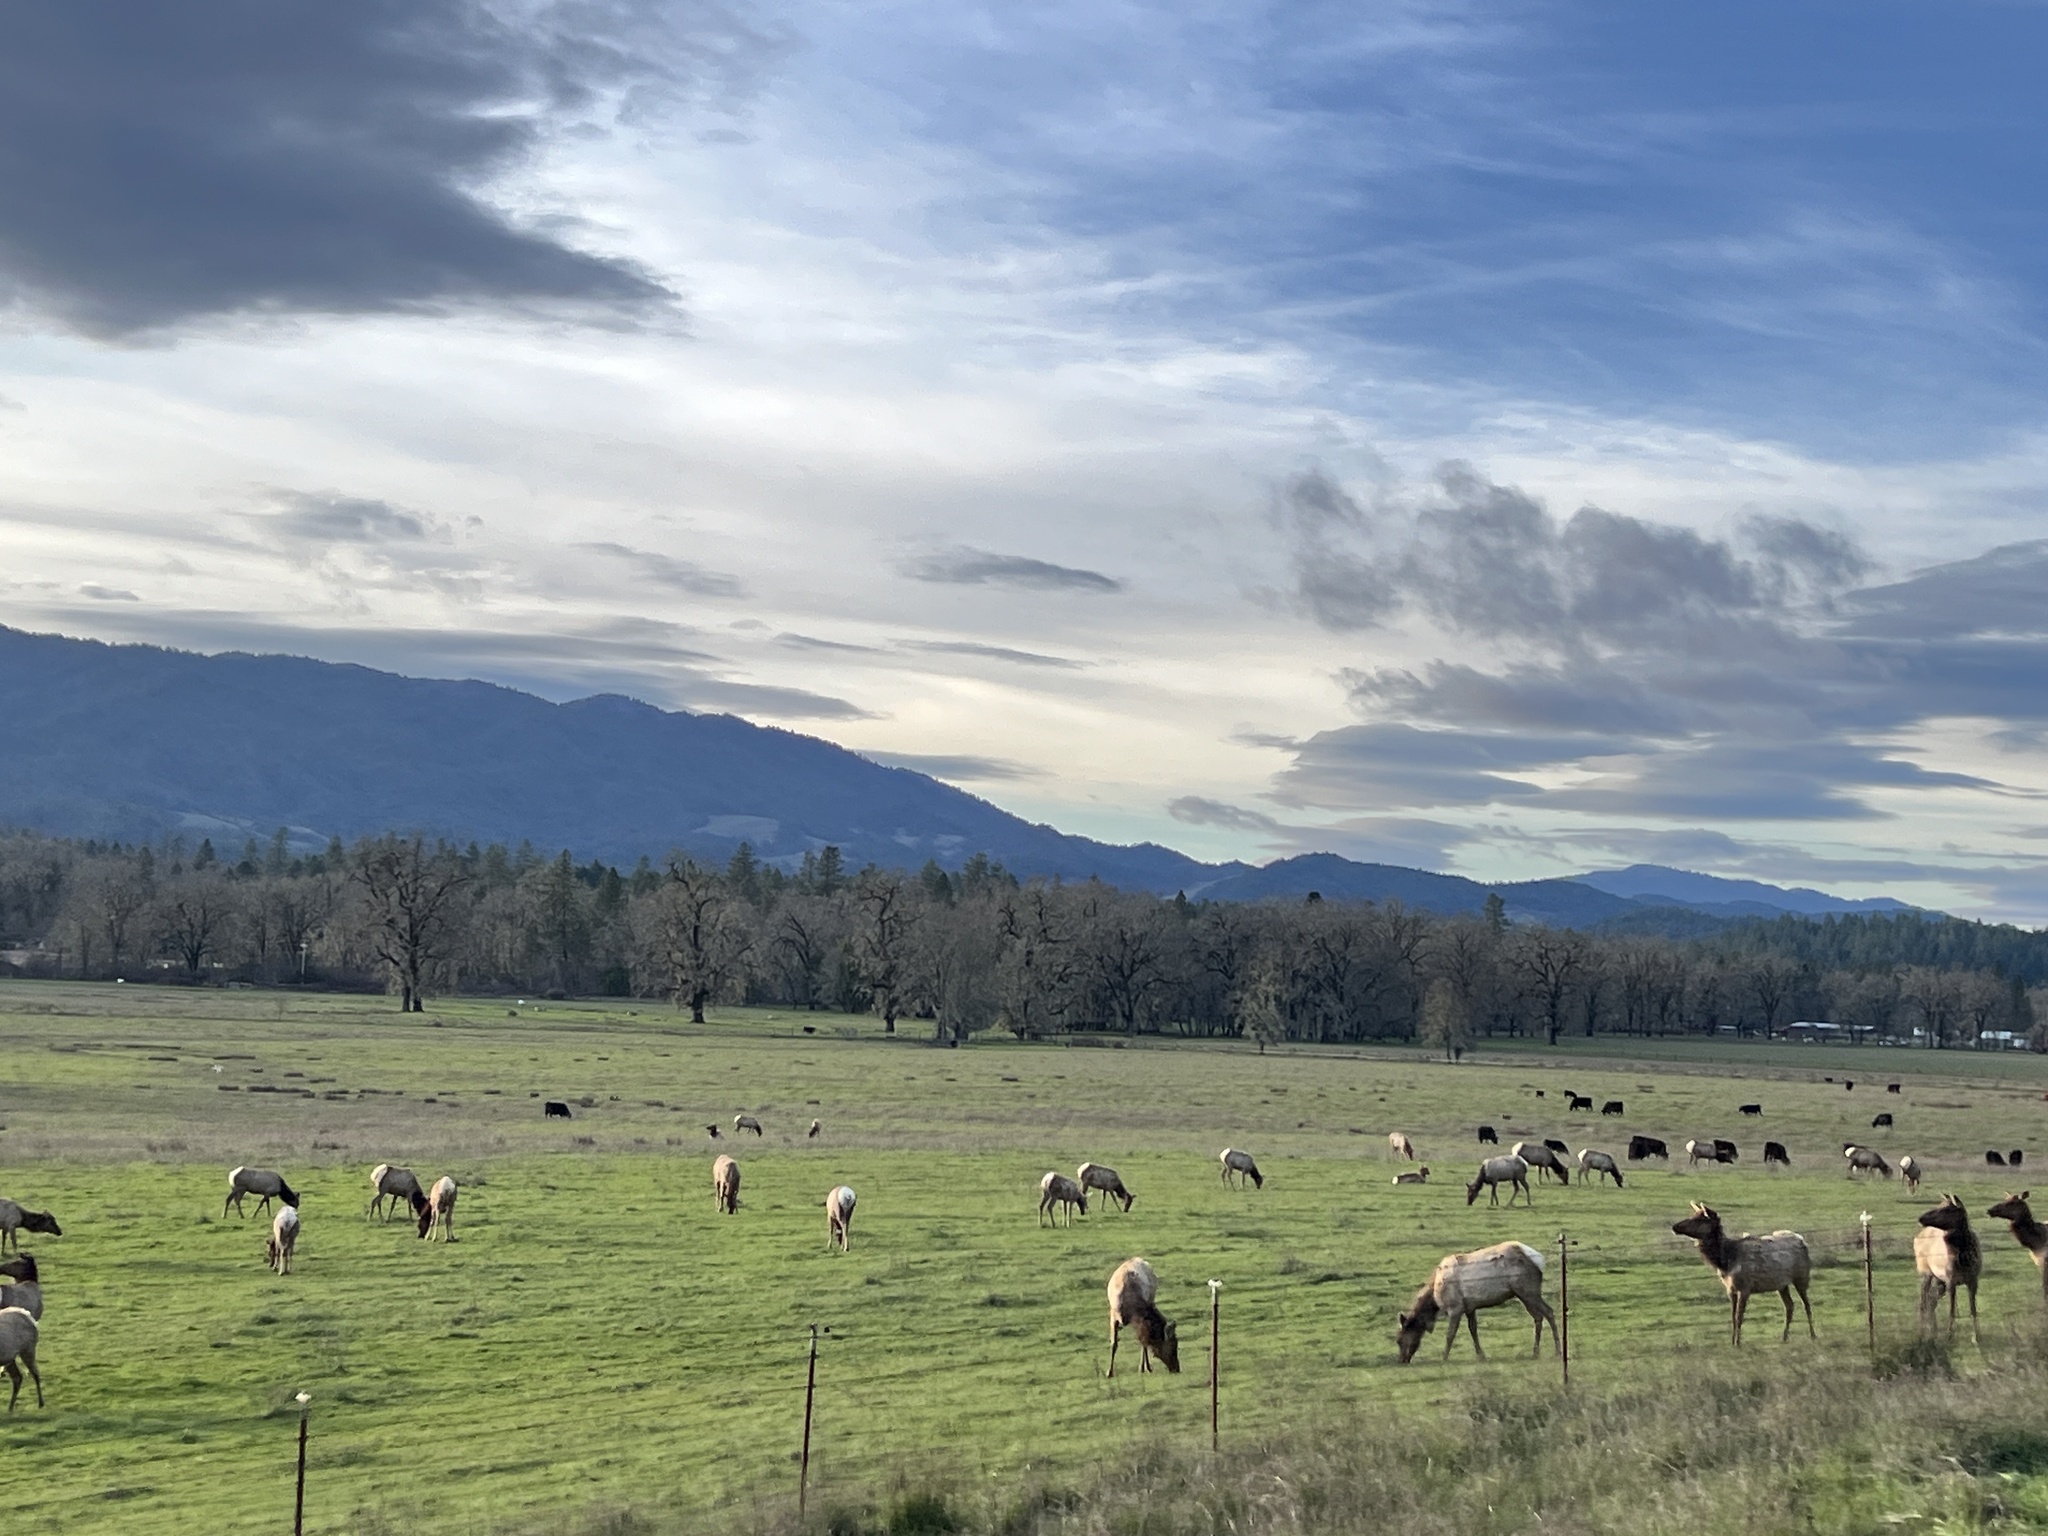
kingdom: Animalia
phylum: Chordata
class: Mammalia
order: Artiodactyla
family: Cervidae
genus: Cervus
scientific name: Cervus elaphus
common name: Red deer
